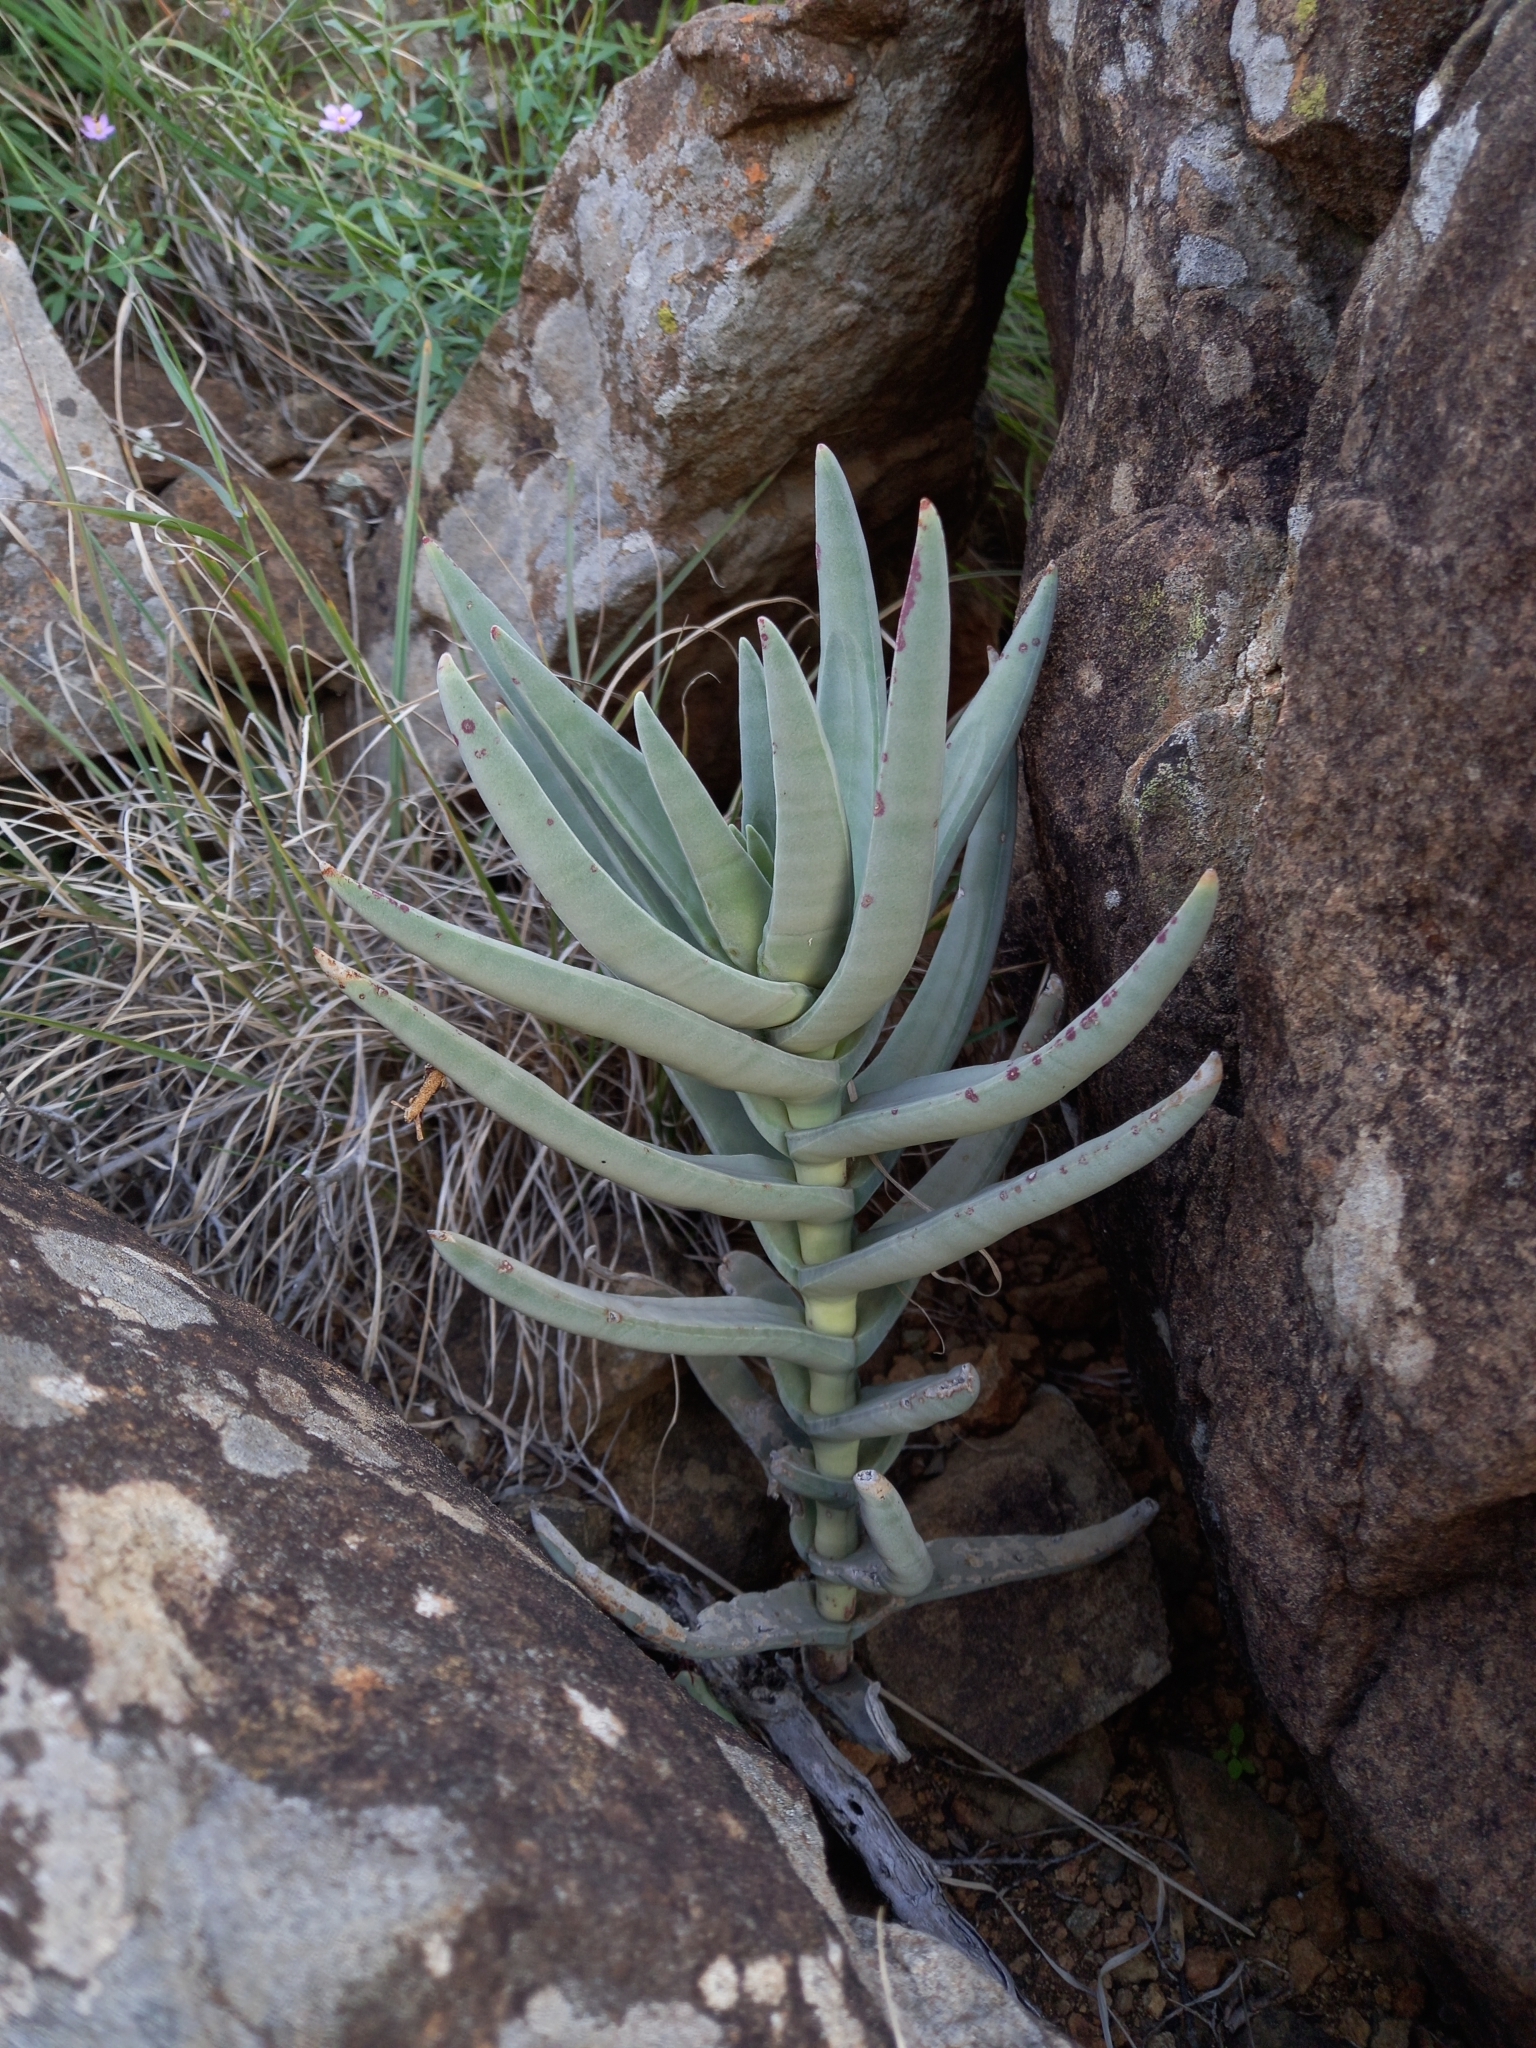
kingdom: Plantae
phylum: Tracheophyta
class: Magnoliopsida
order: Saxifragales
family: Crassulaceae
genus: Crassula
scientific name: Crassula perfoliata
